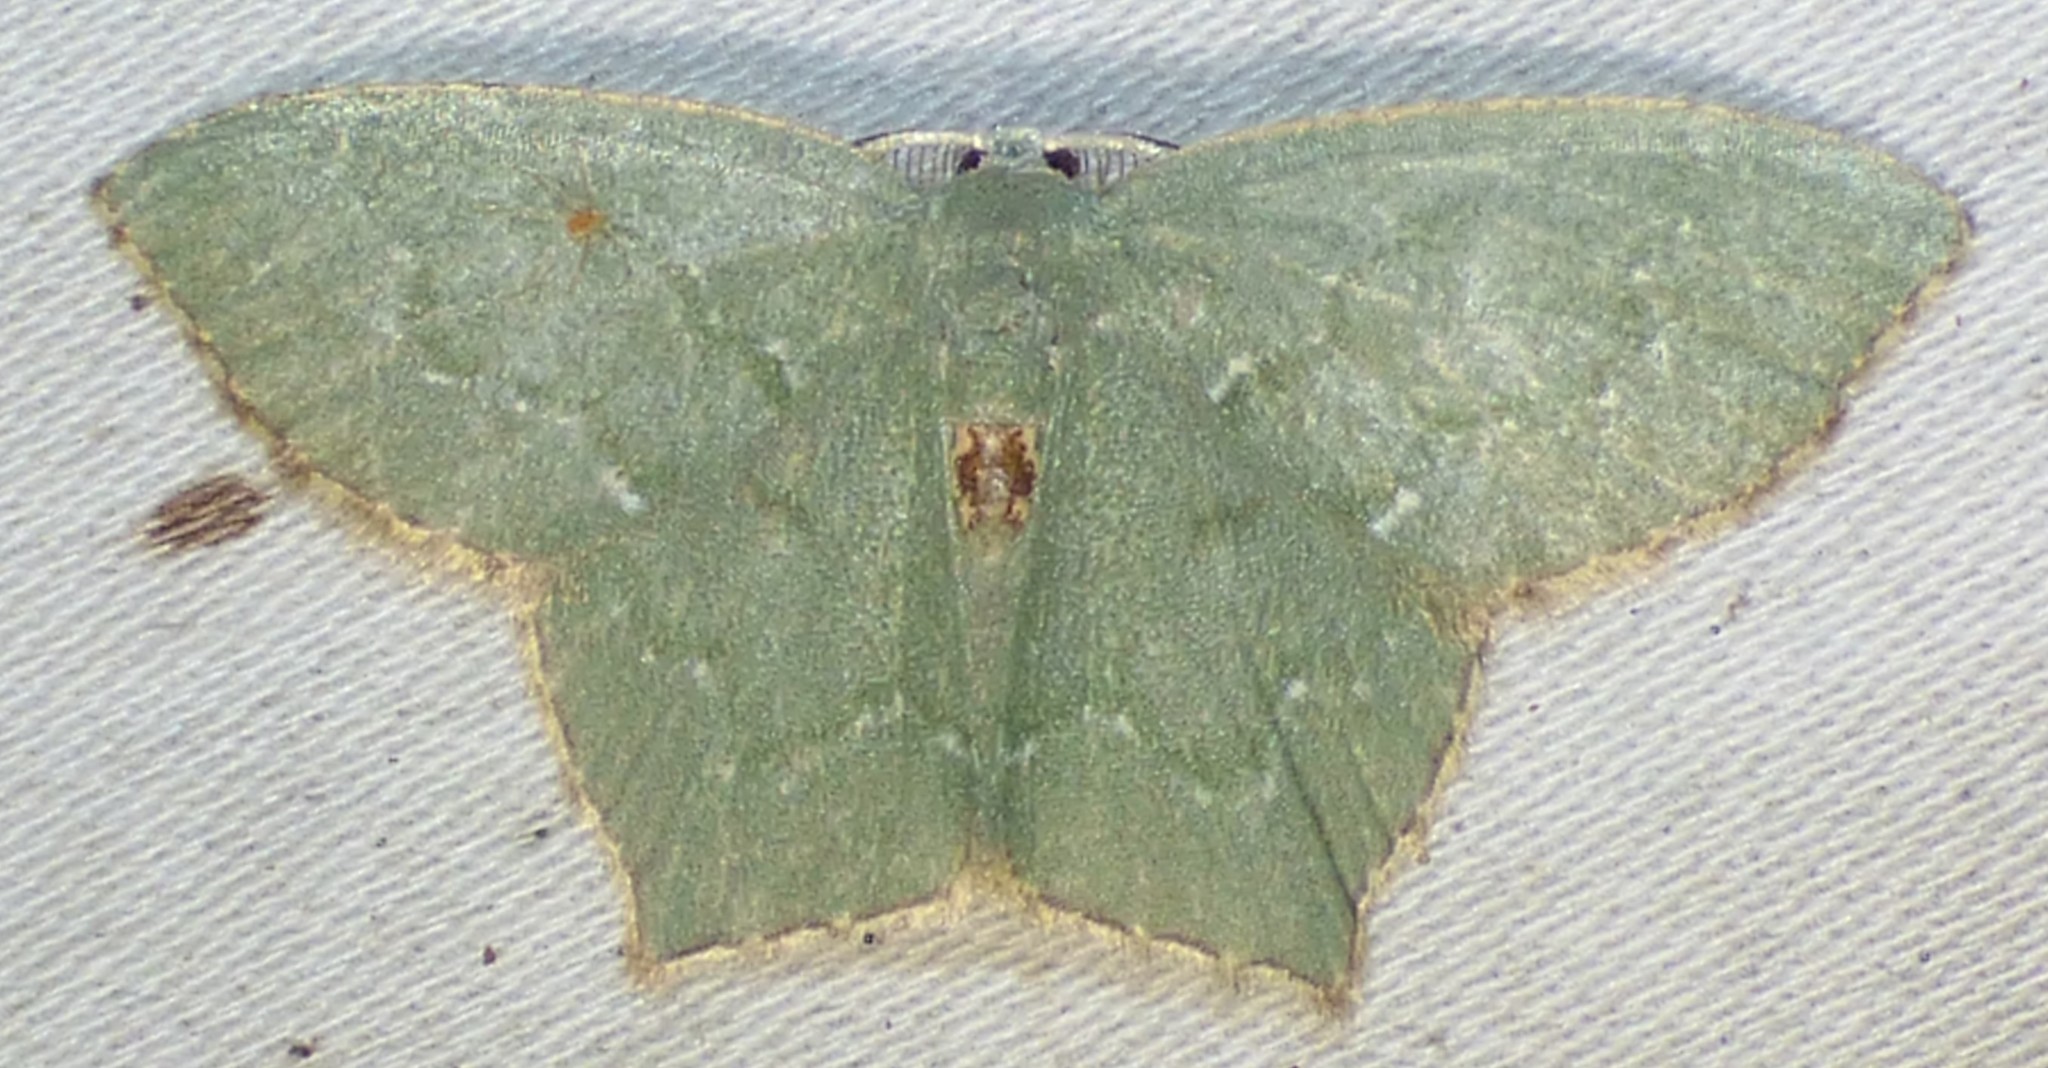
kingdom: Animalia
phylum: Arthropoda
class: Insecta
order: Lepidoptera
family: Geometridae
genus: Chloropteryx
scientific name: Chloropteryx tepperaria
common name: Angle winged emerald moth
